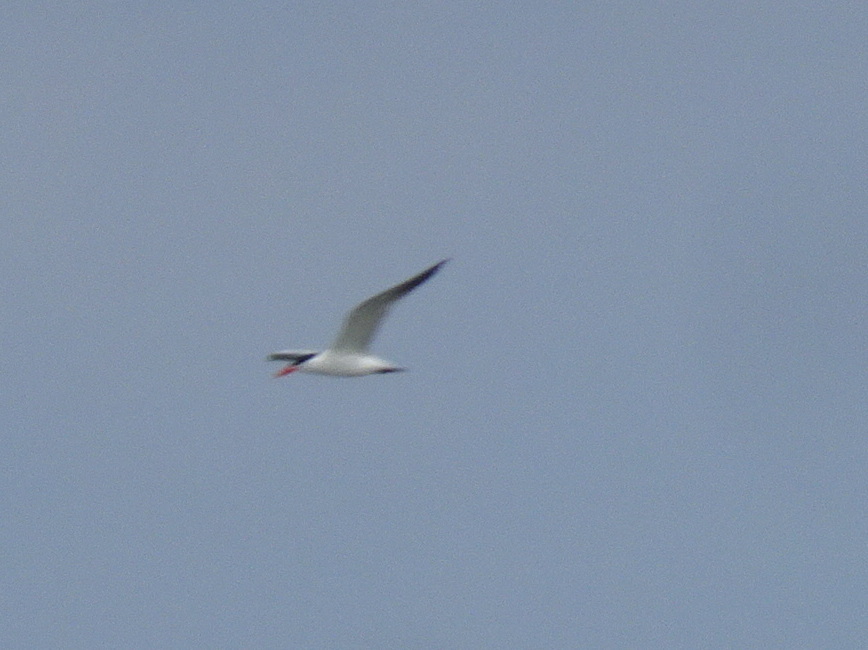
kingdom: Animalia
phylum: Chordata
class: Aves
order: Charadriiformes
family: Laridae
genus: Hydroprogne
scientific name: Hydroprogne caspia
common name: Caspian tern
